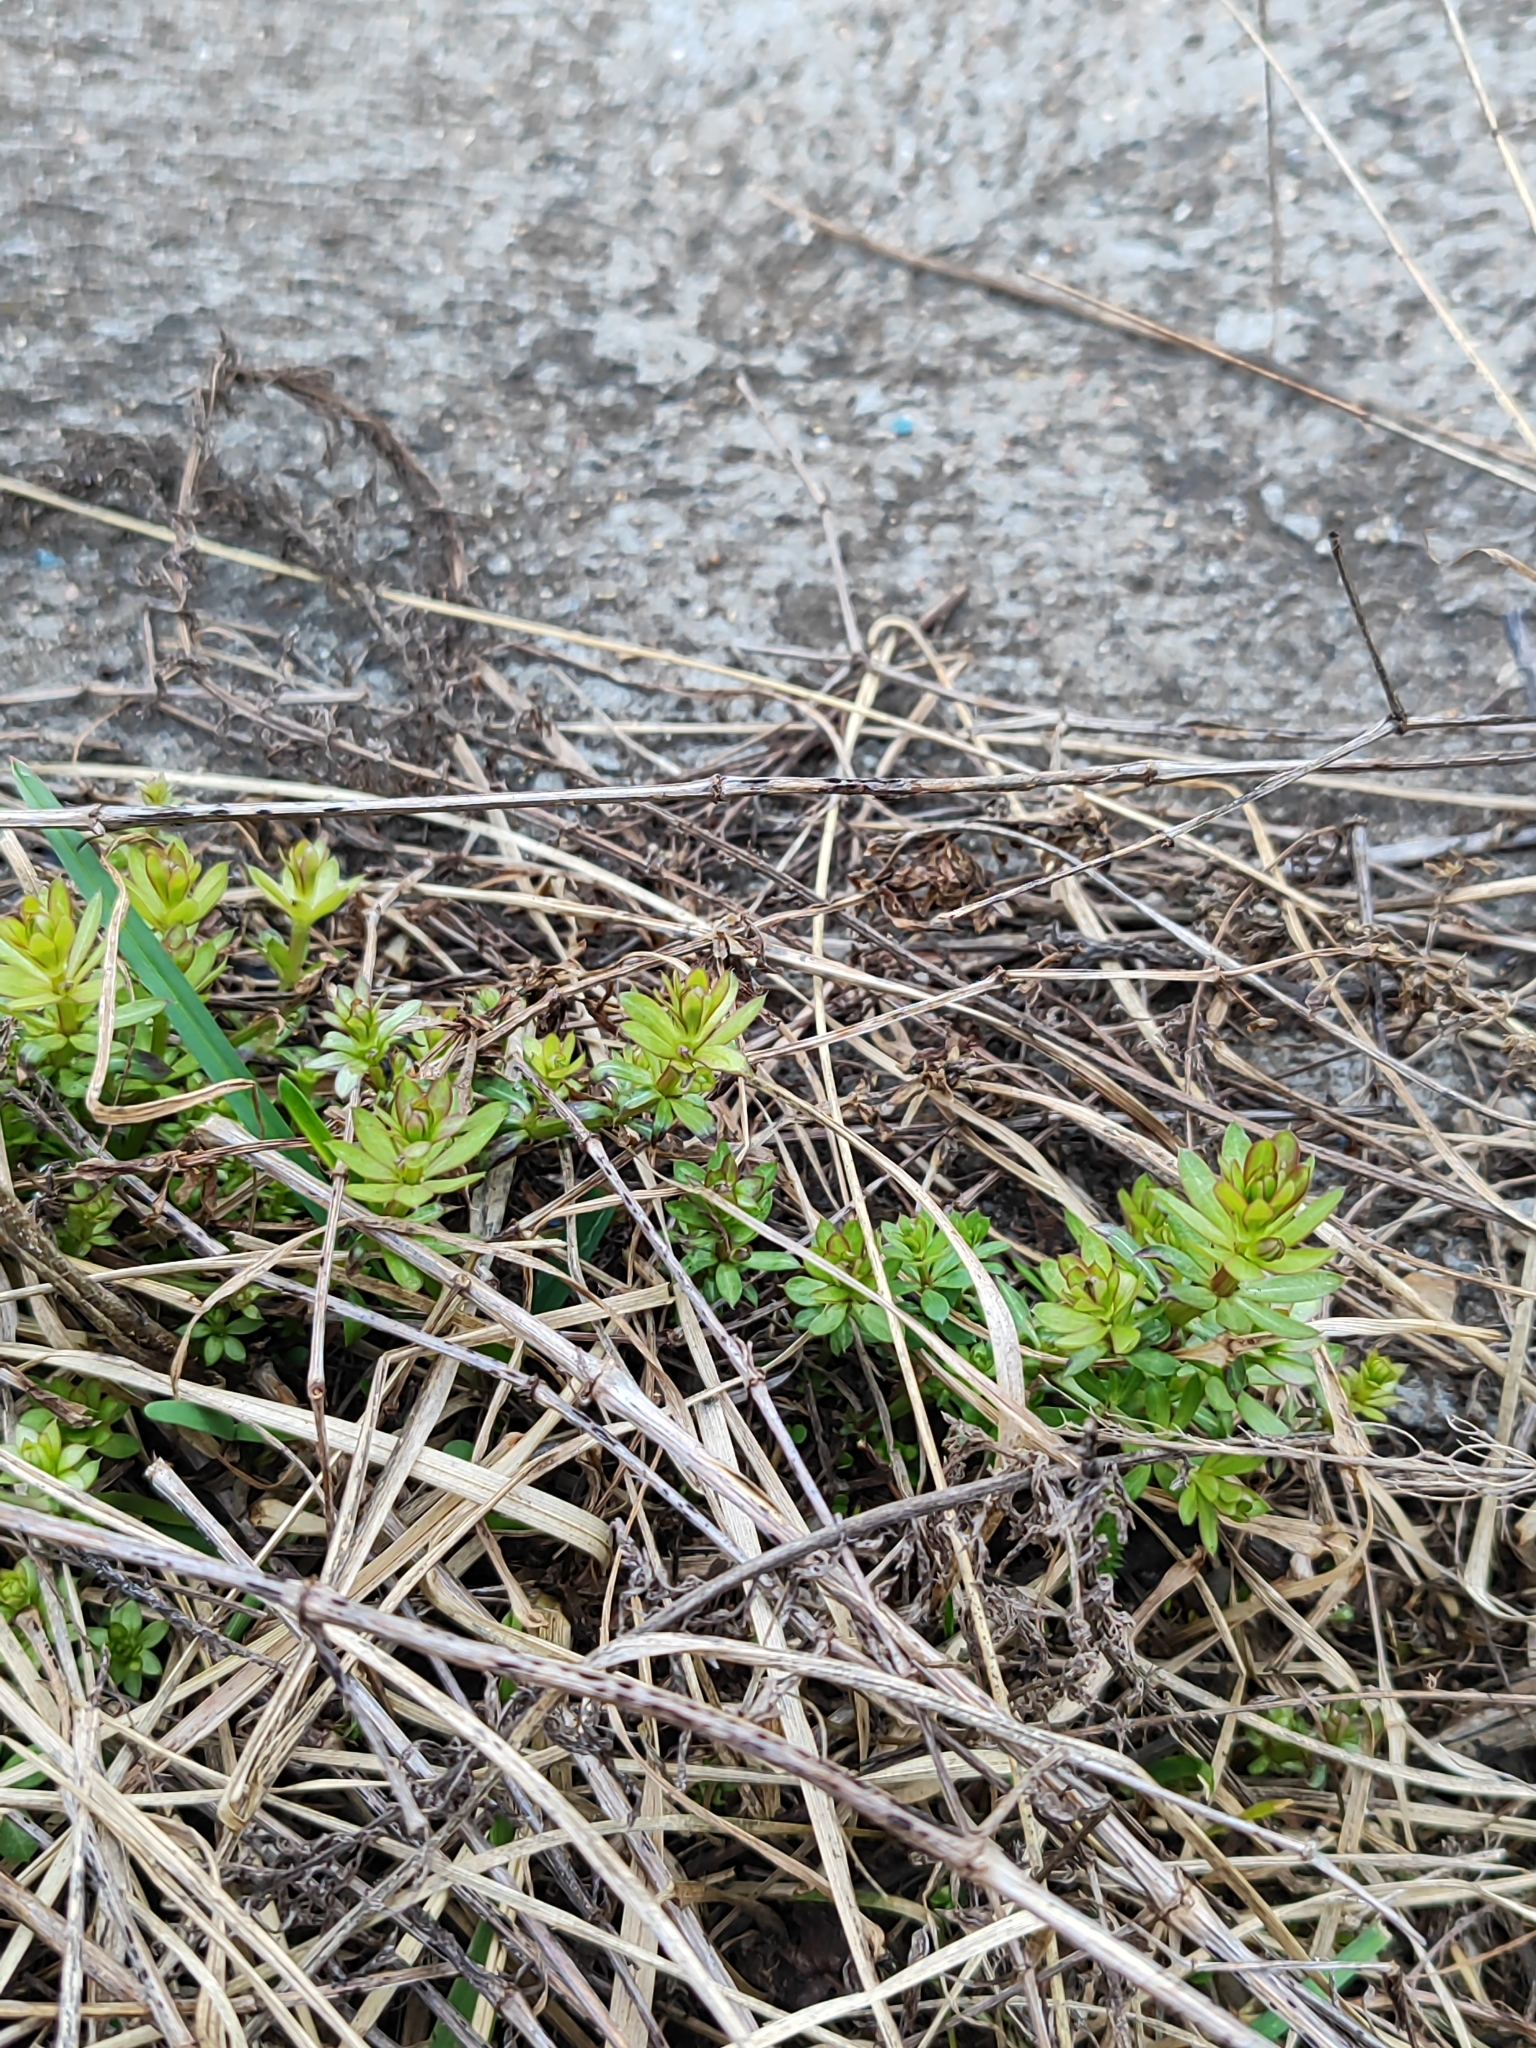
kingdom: Plantae
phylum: Tracheophyta
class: Magnoliopsida
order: Gentianales
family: Rubiaceae
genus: Galium
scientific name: Galium mollugo
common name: Hedge bedstraw
